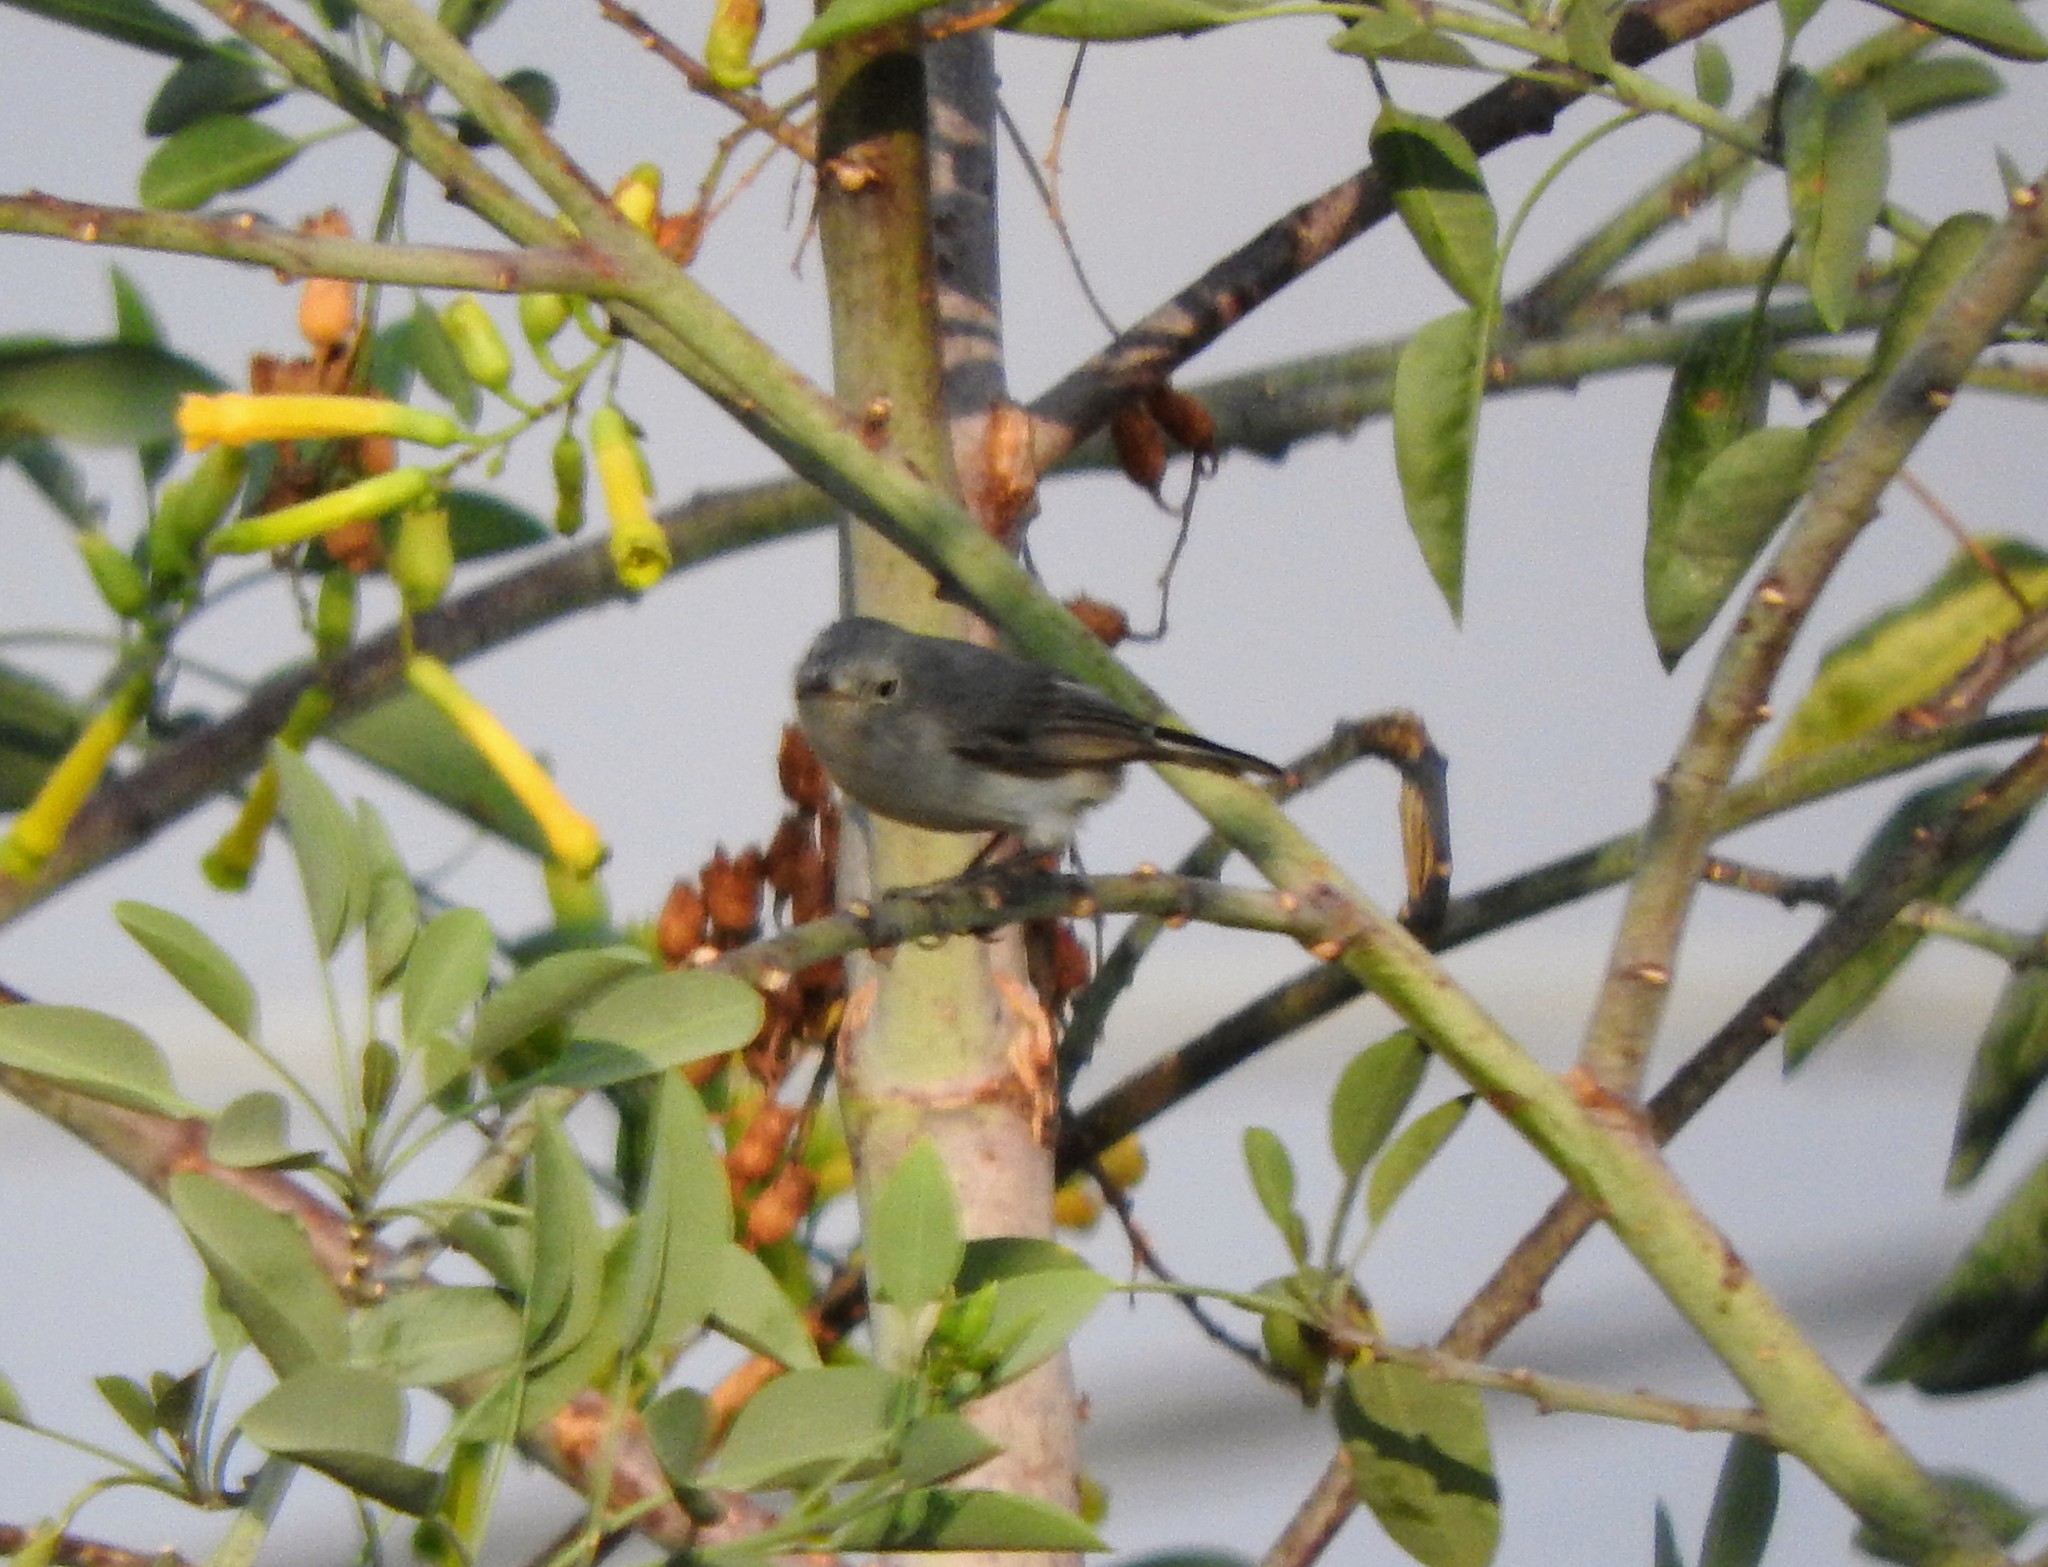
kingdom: Animalia
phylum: Chordata
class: Aves
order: Passeriformes
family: Polioptilidae
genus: Polioptila
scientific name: Polioptila caerulea
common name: Blue-gray gnatcatcher
